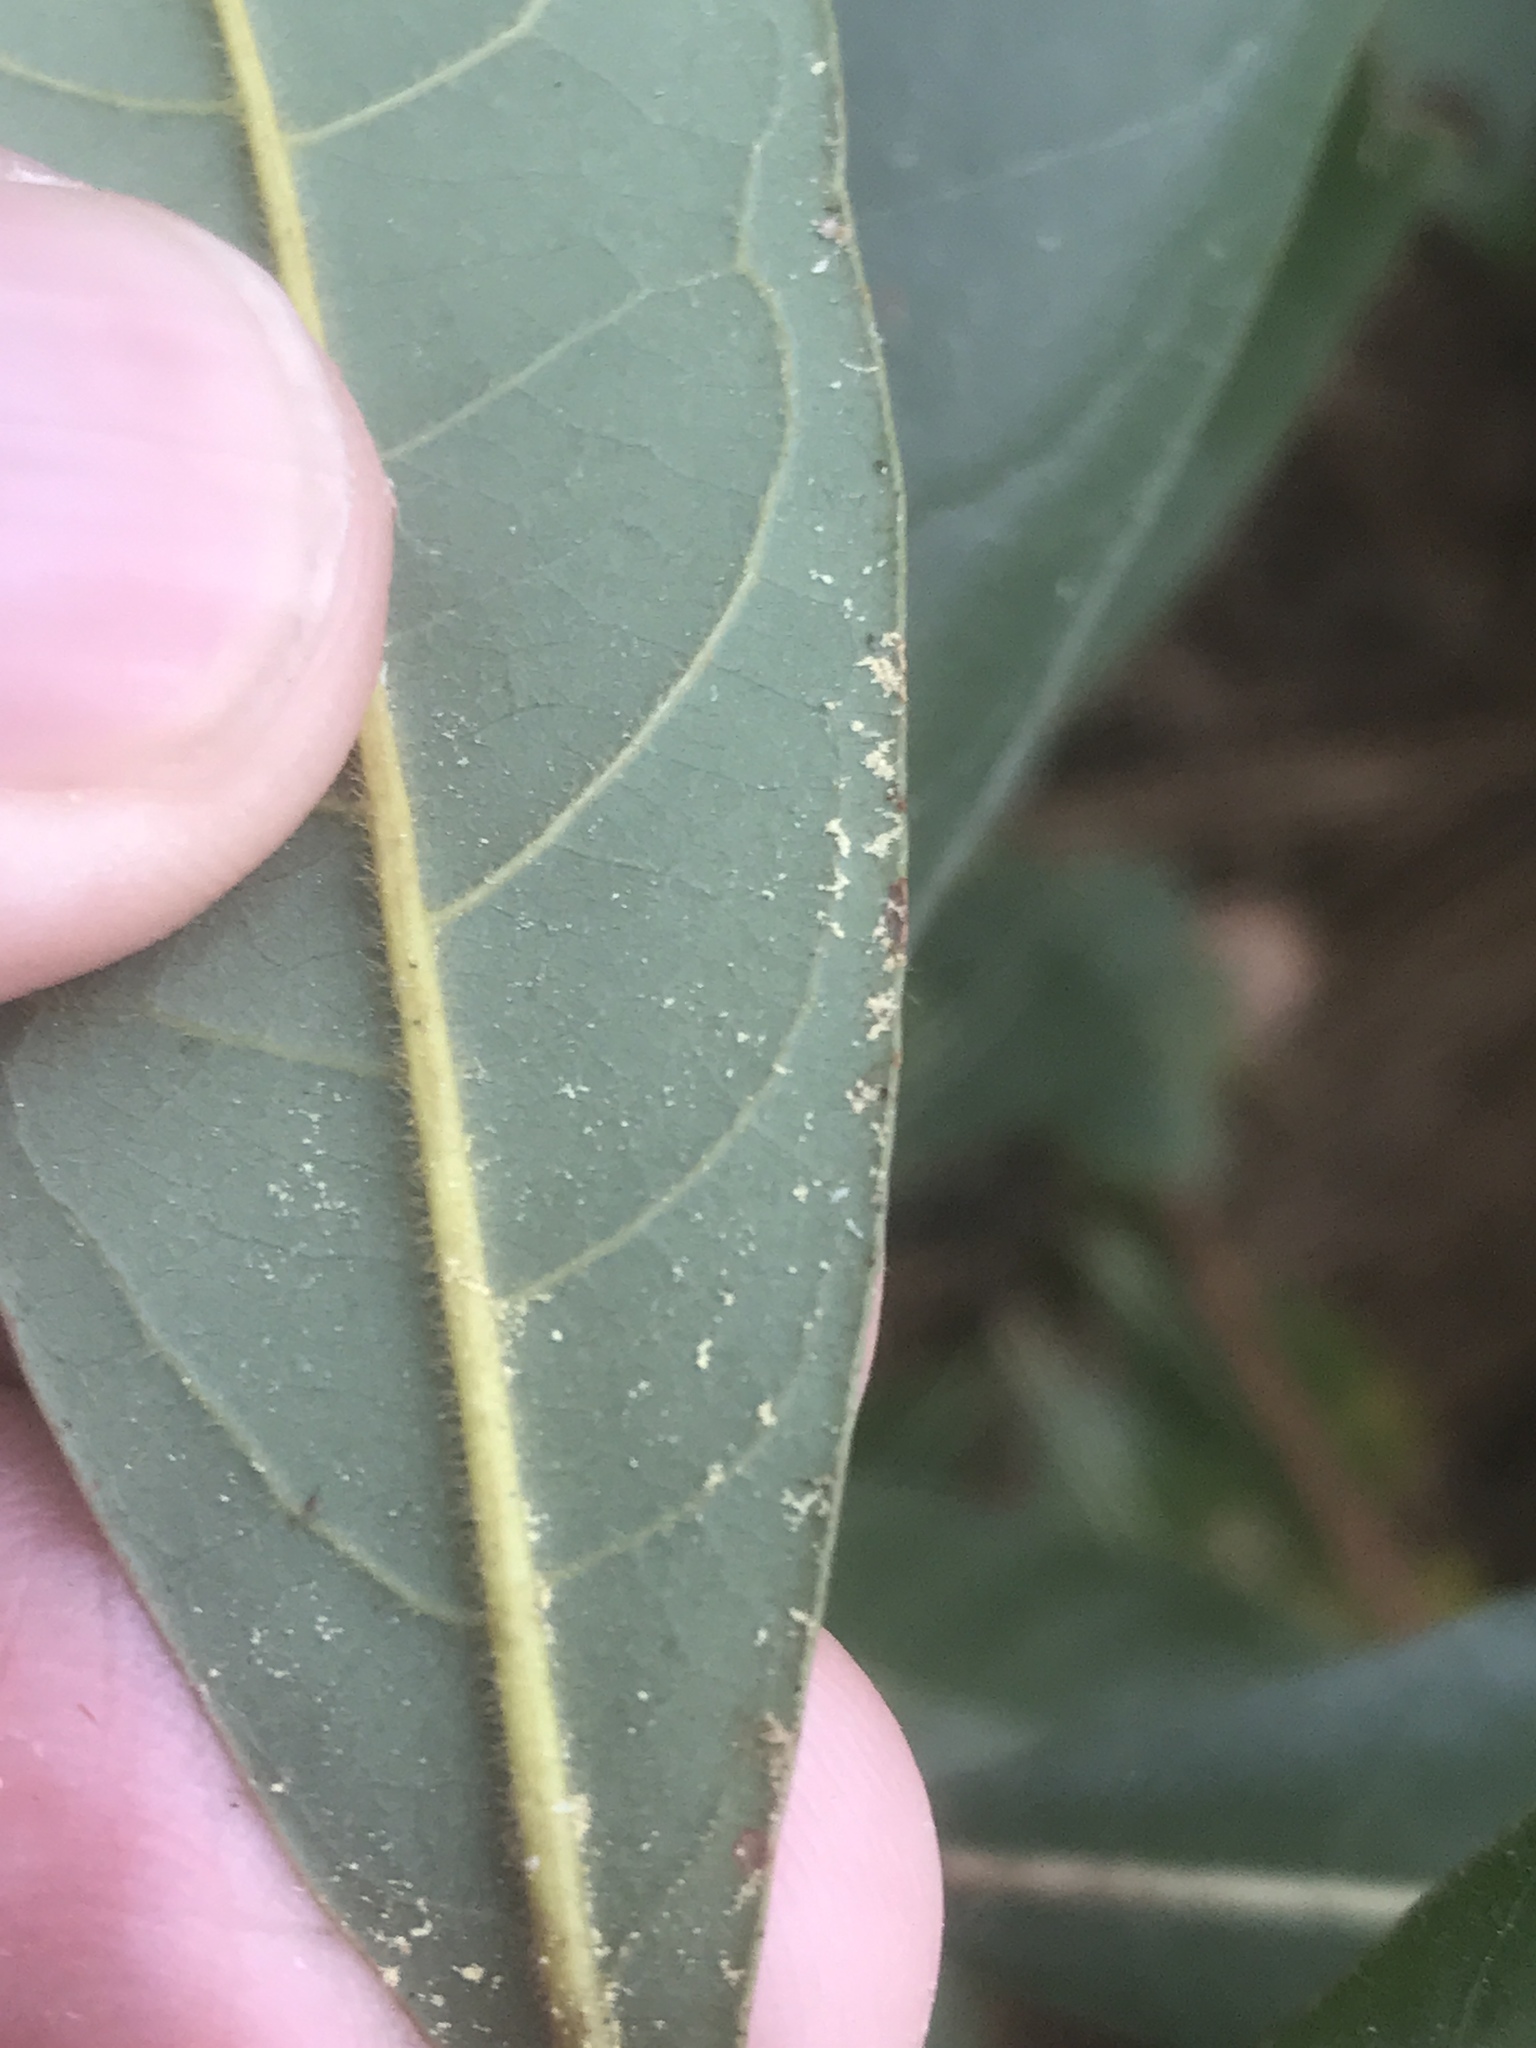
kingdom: Plantae
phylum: Tracheophyta
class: Magnoliopsida
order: Laurales
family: Lauraceae
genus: Persea
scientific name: Persea palustris
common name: Swampbay
